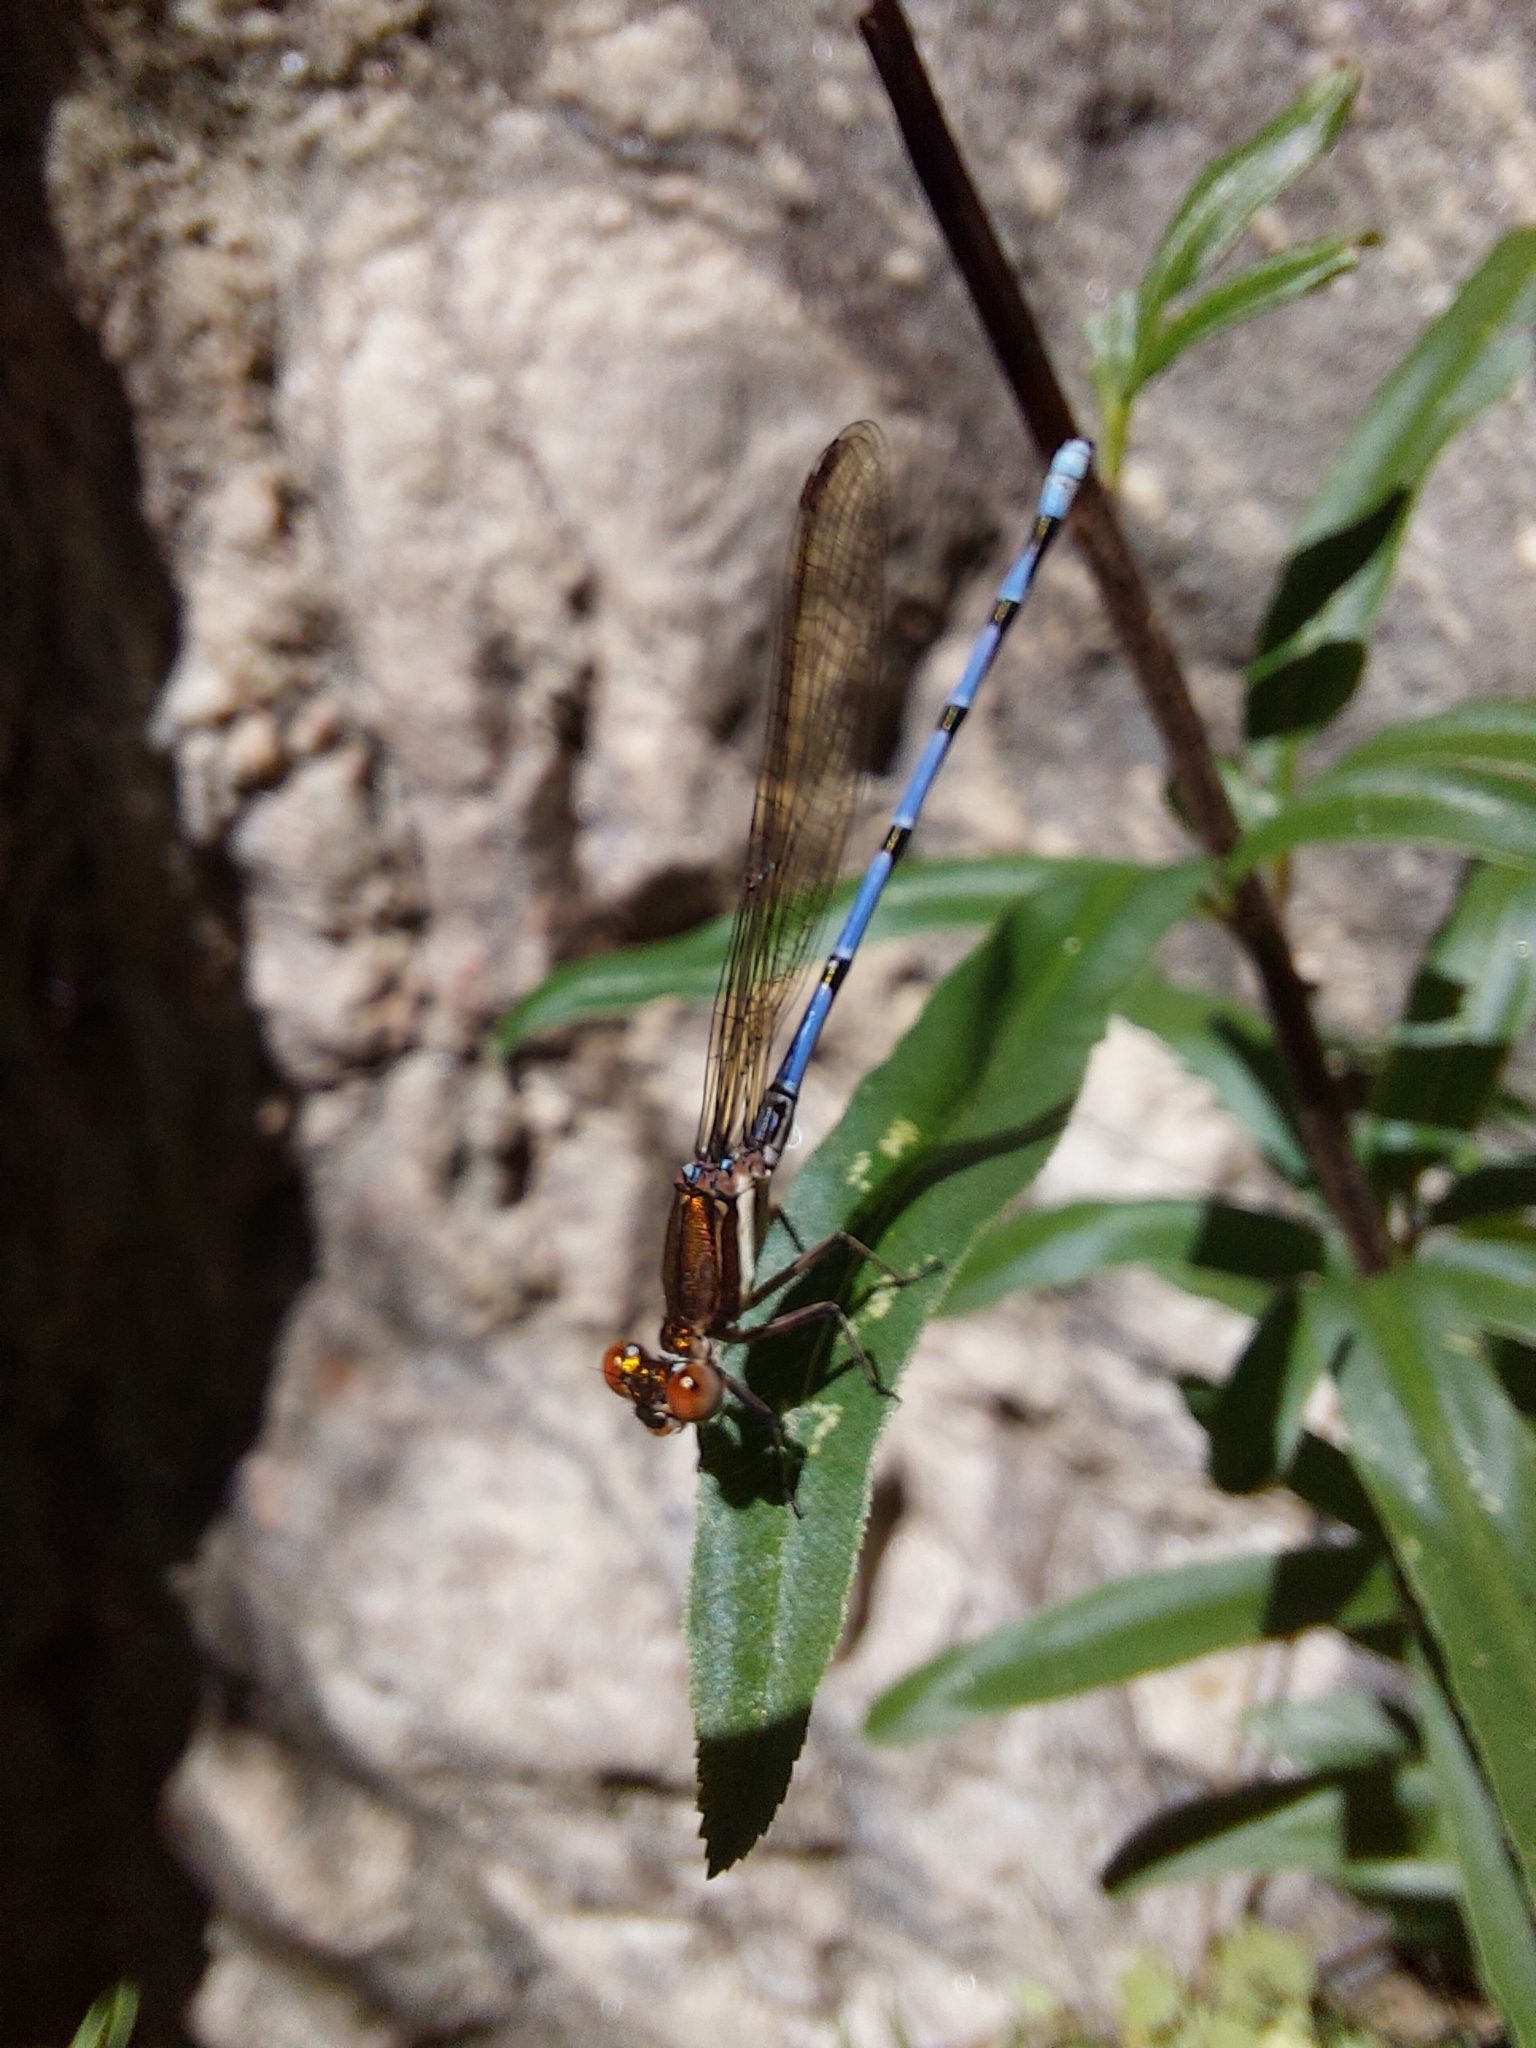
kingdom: Animalia
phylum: Arthropoda
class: Insecta
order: Odonata
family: Coenagrionidae
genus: Argia
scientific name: Argia joergenseni
